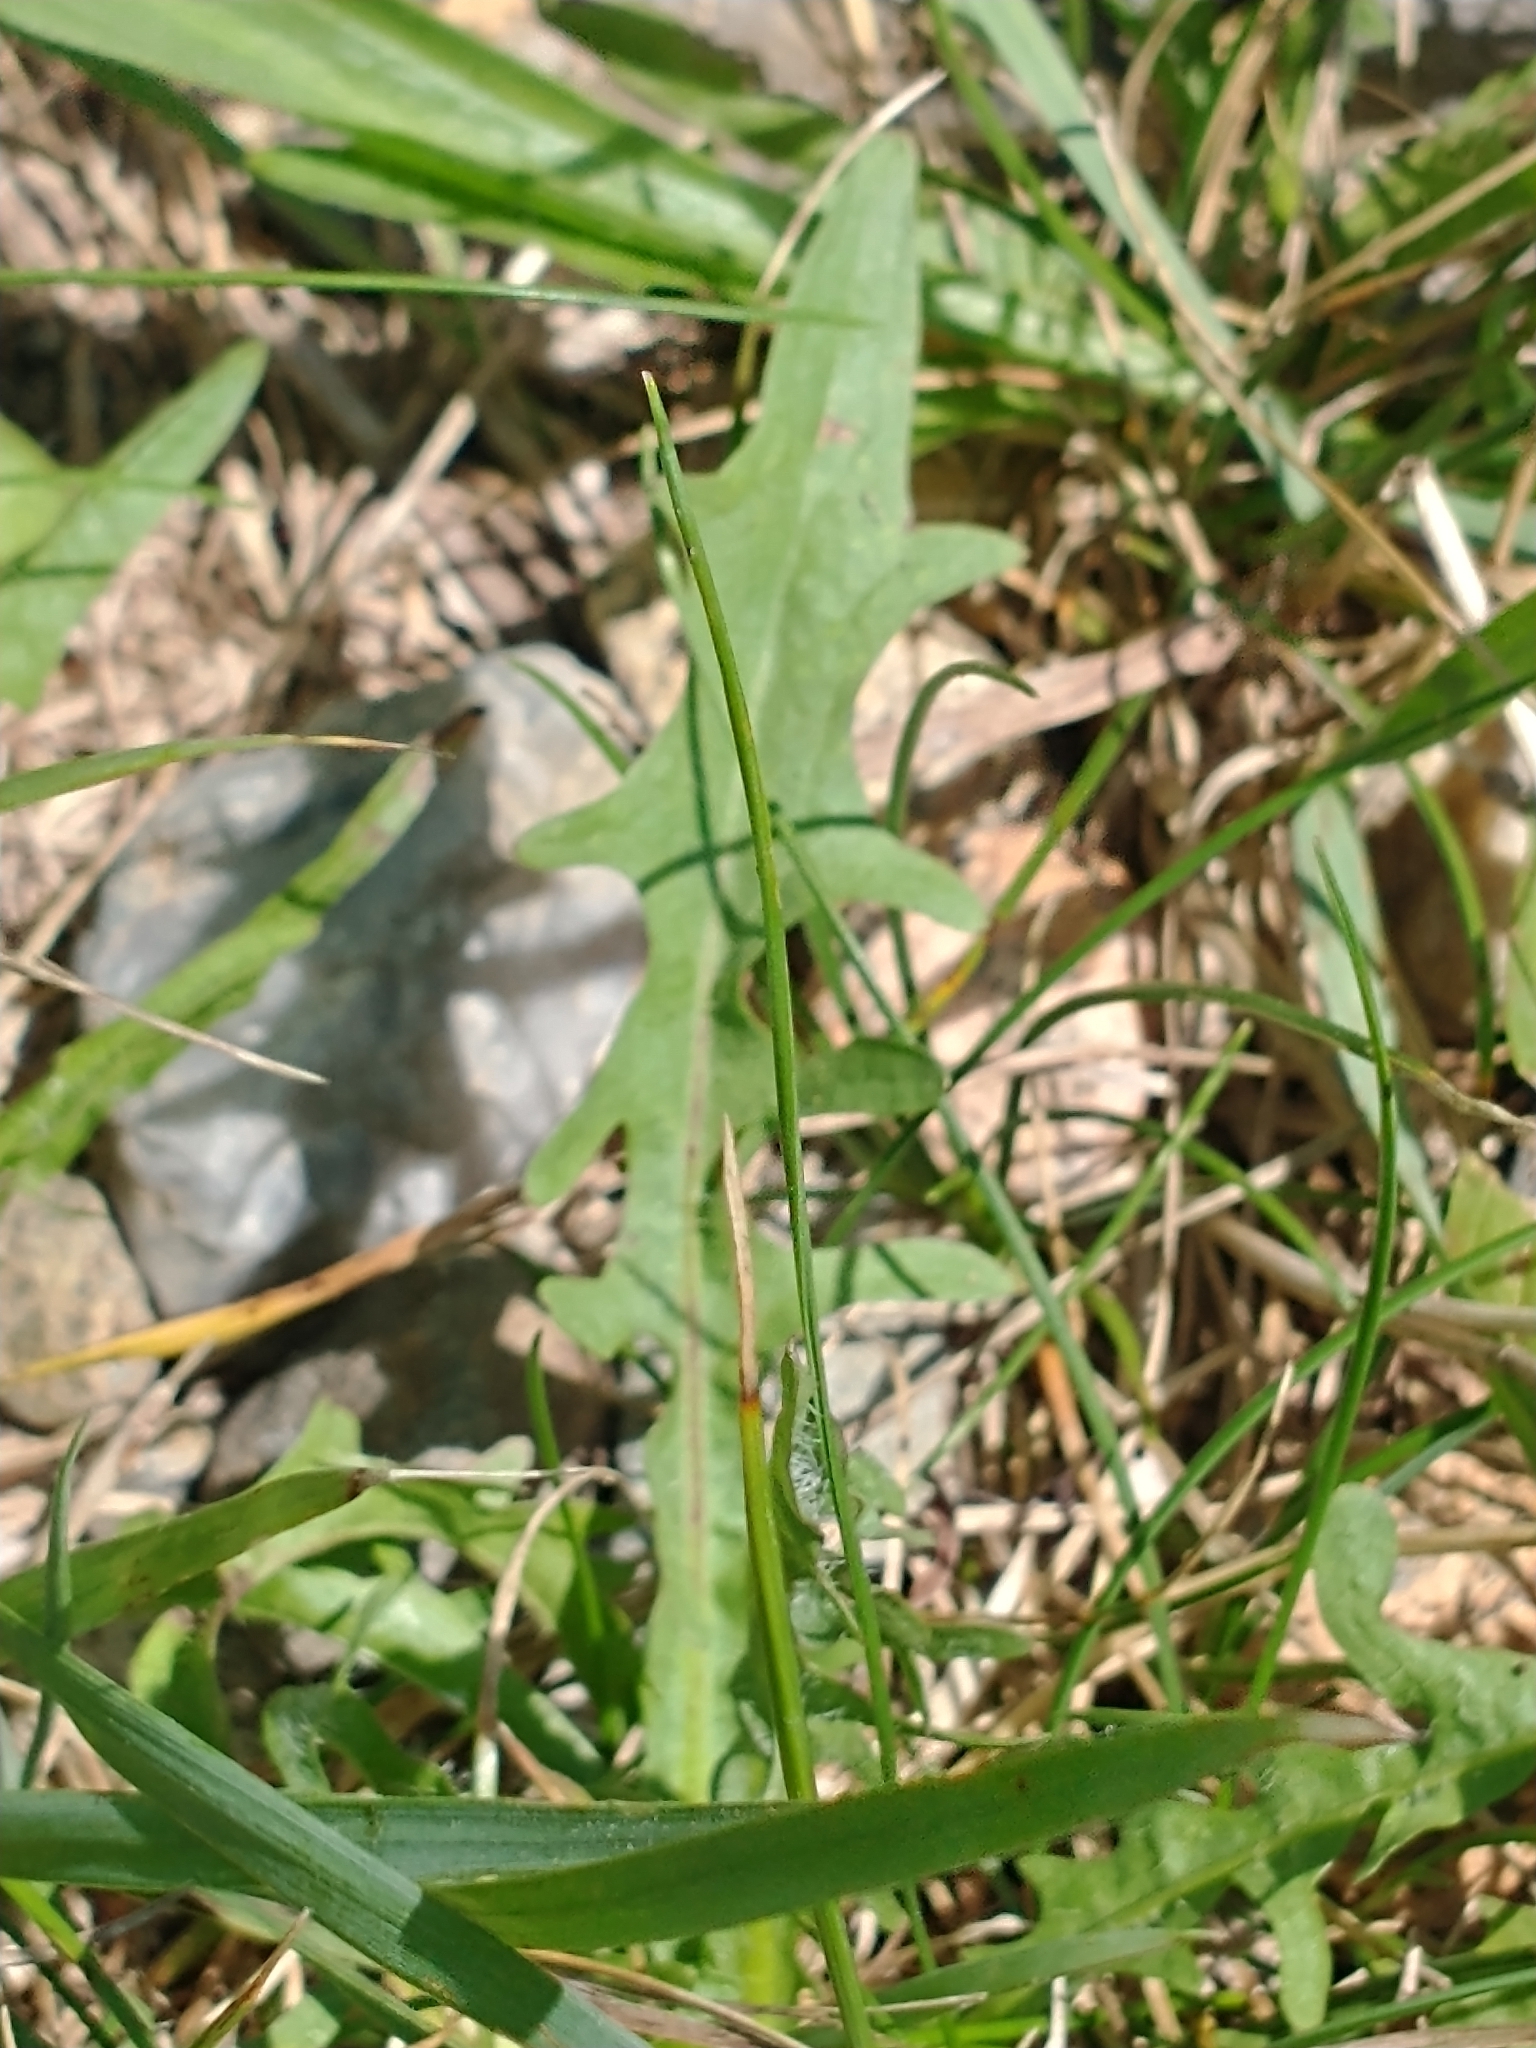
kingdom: Plantae
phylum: Tracheophyta
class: Magnoliopsida
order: Asterales
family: Asteraceae
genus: Scorzoneroides
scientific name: Scorzoneroides autumnalis
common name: Autumn hawkbit
